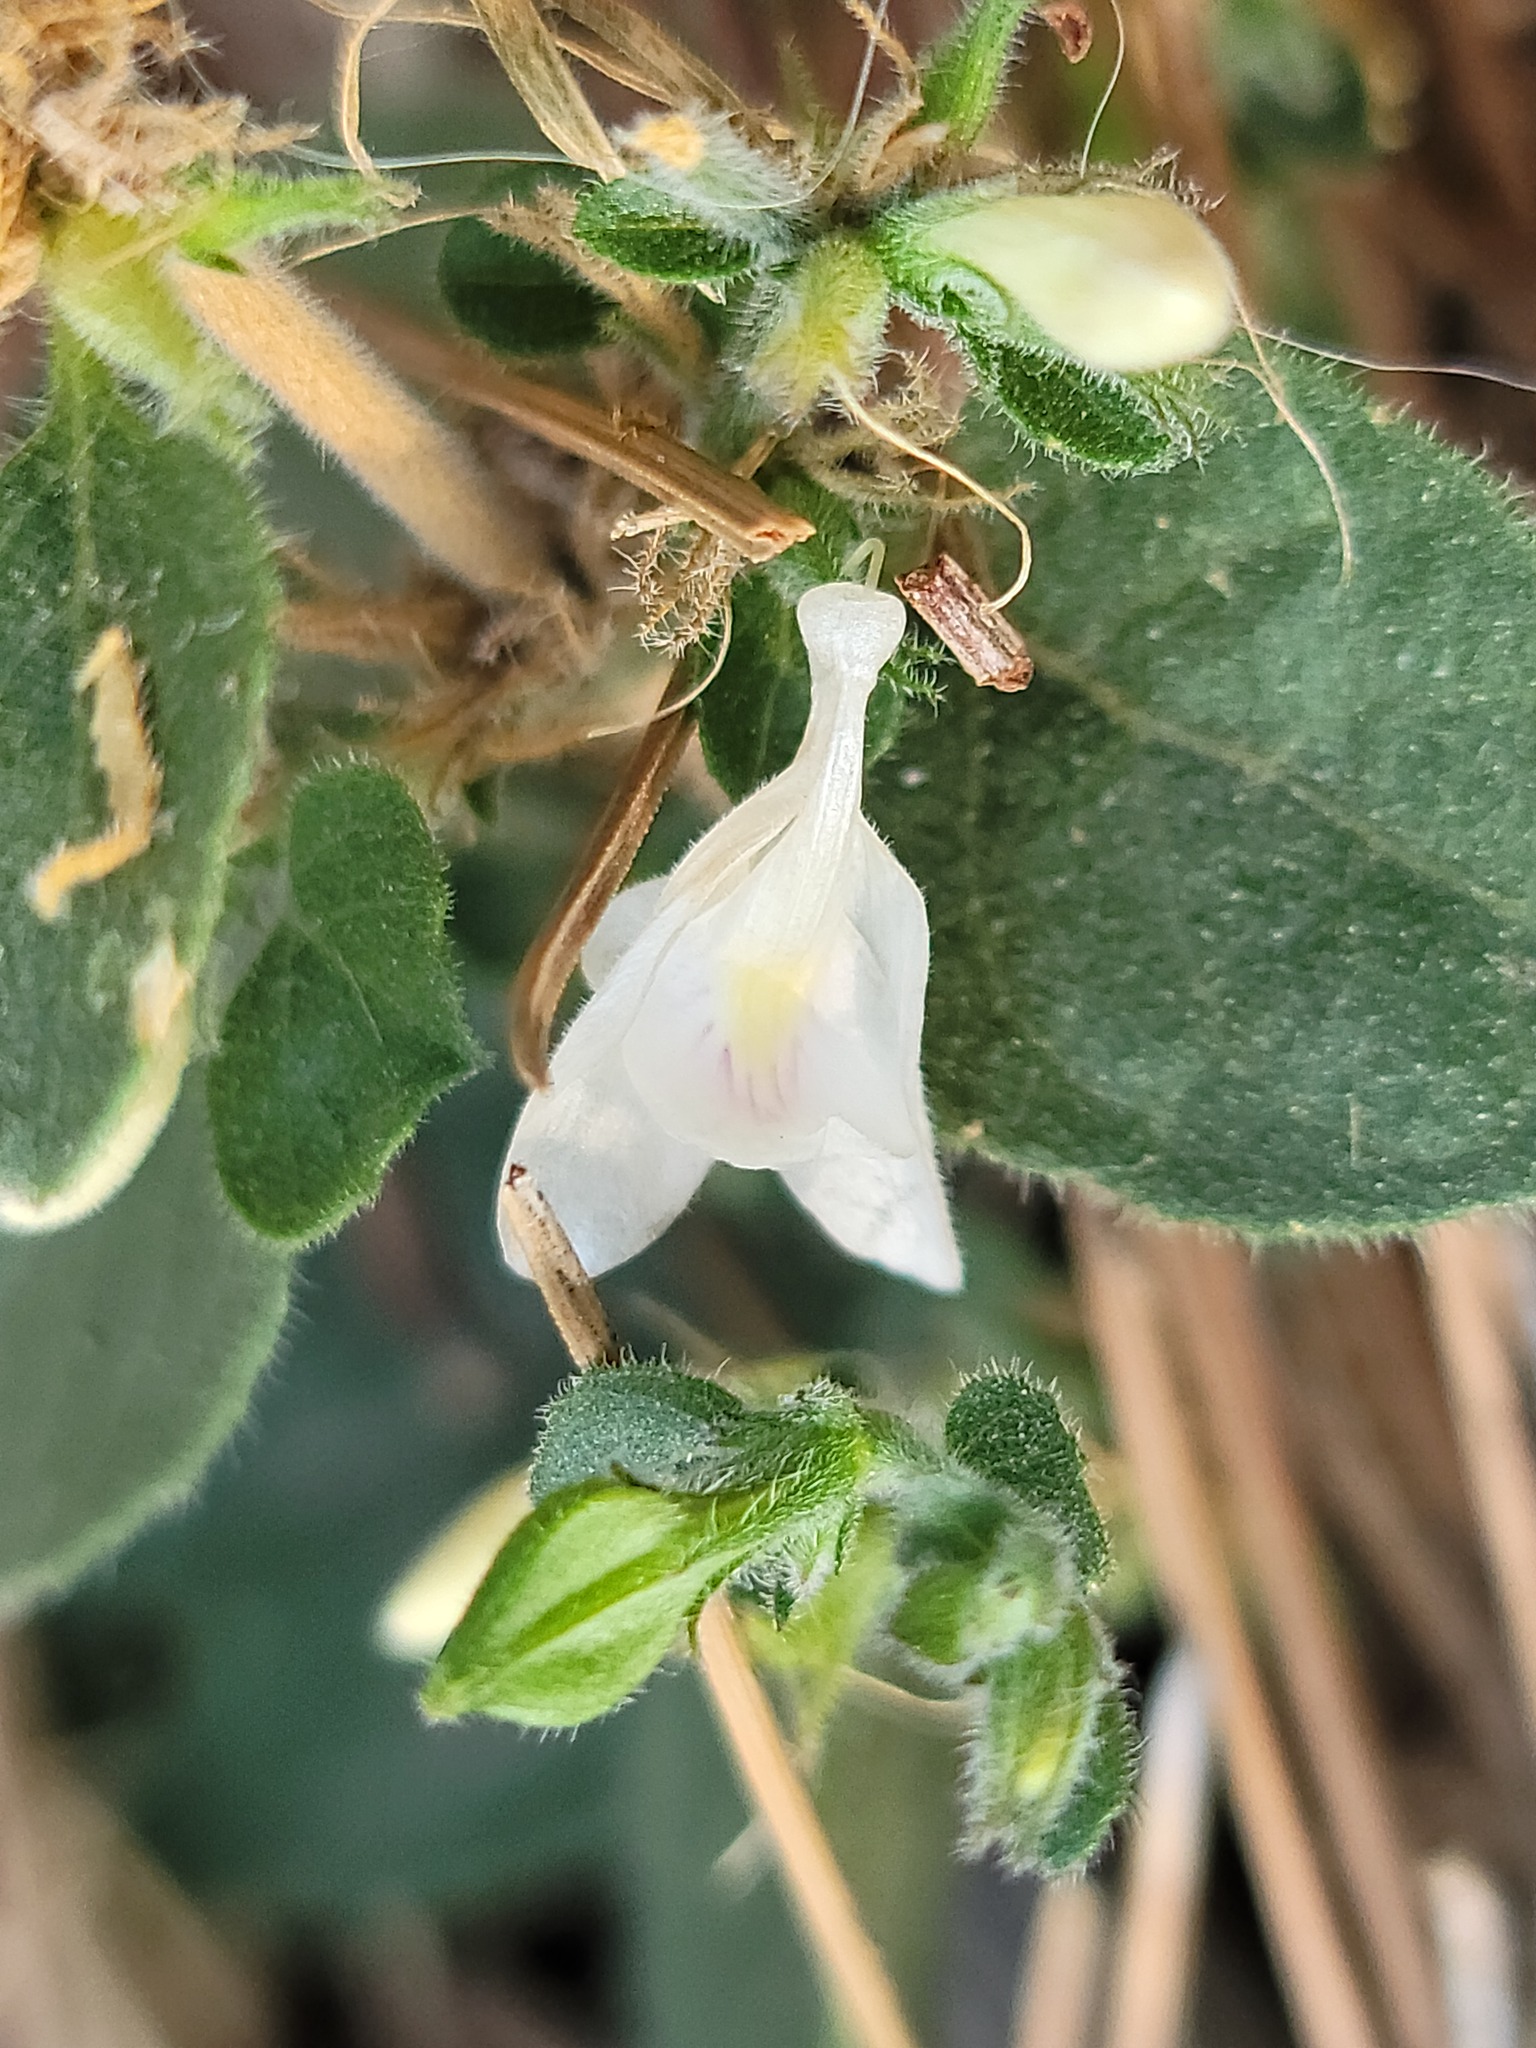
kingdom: Plantae
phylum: Tracheophyta
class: Magnoliopsida
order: Lamiales
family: Acanthaceae
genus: Carlowrightia
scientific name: Carlowrightia torreyana
